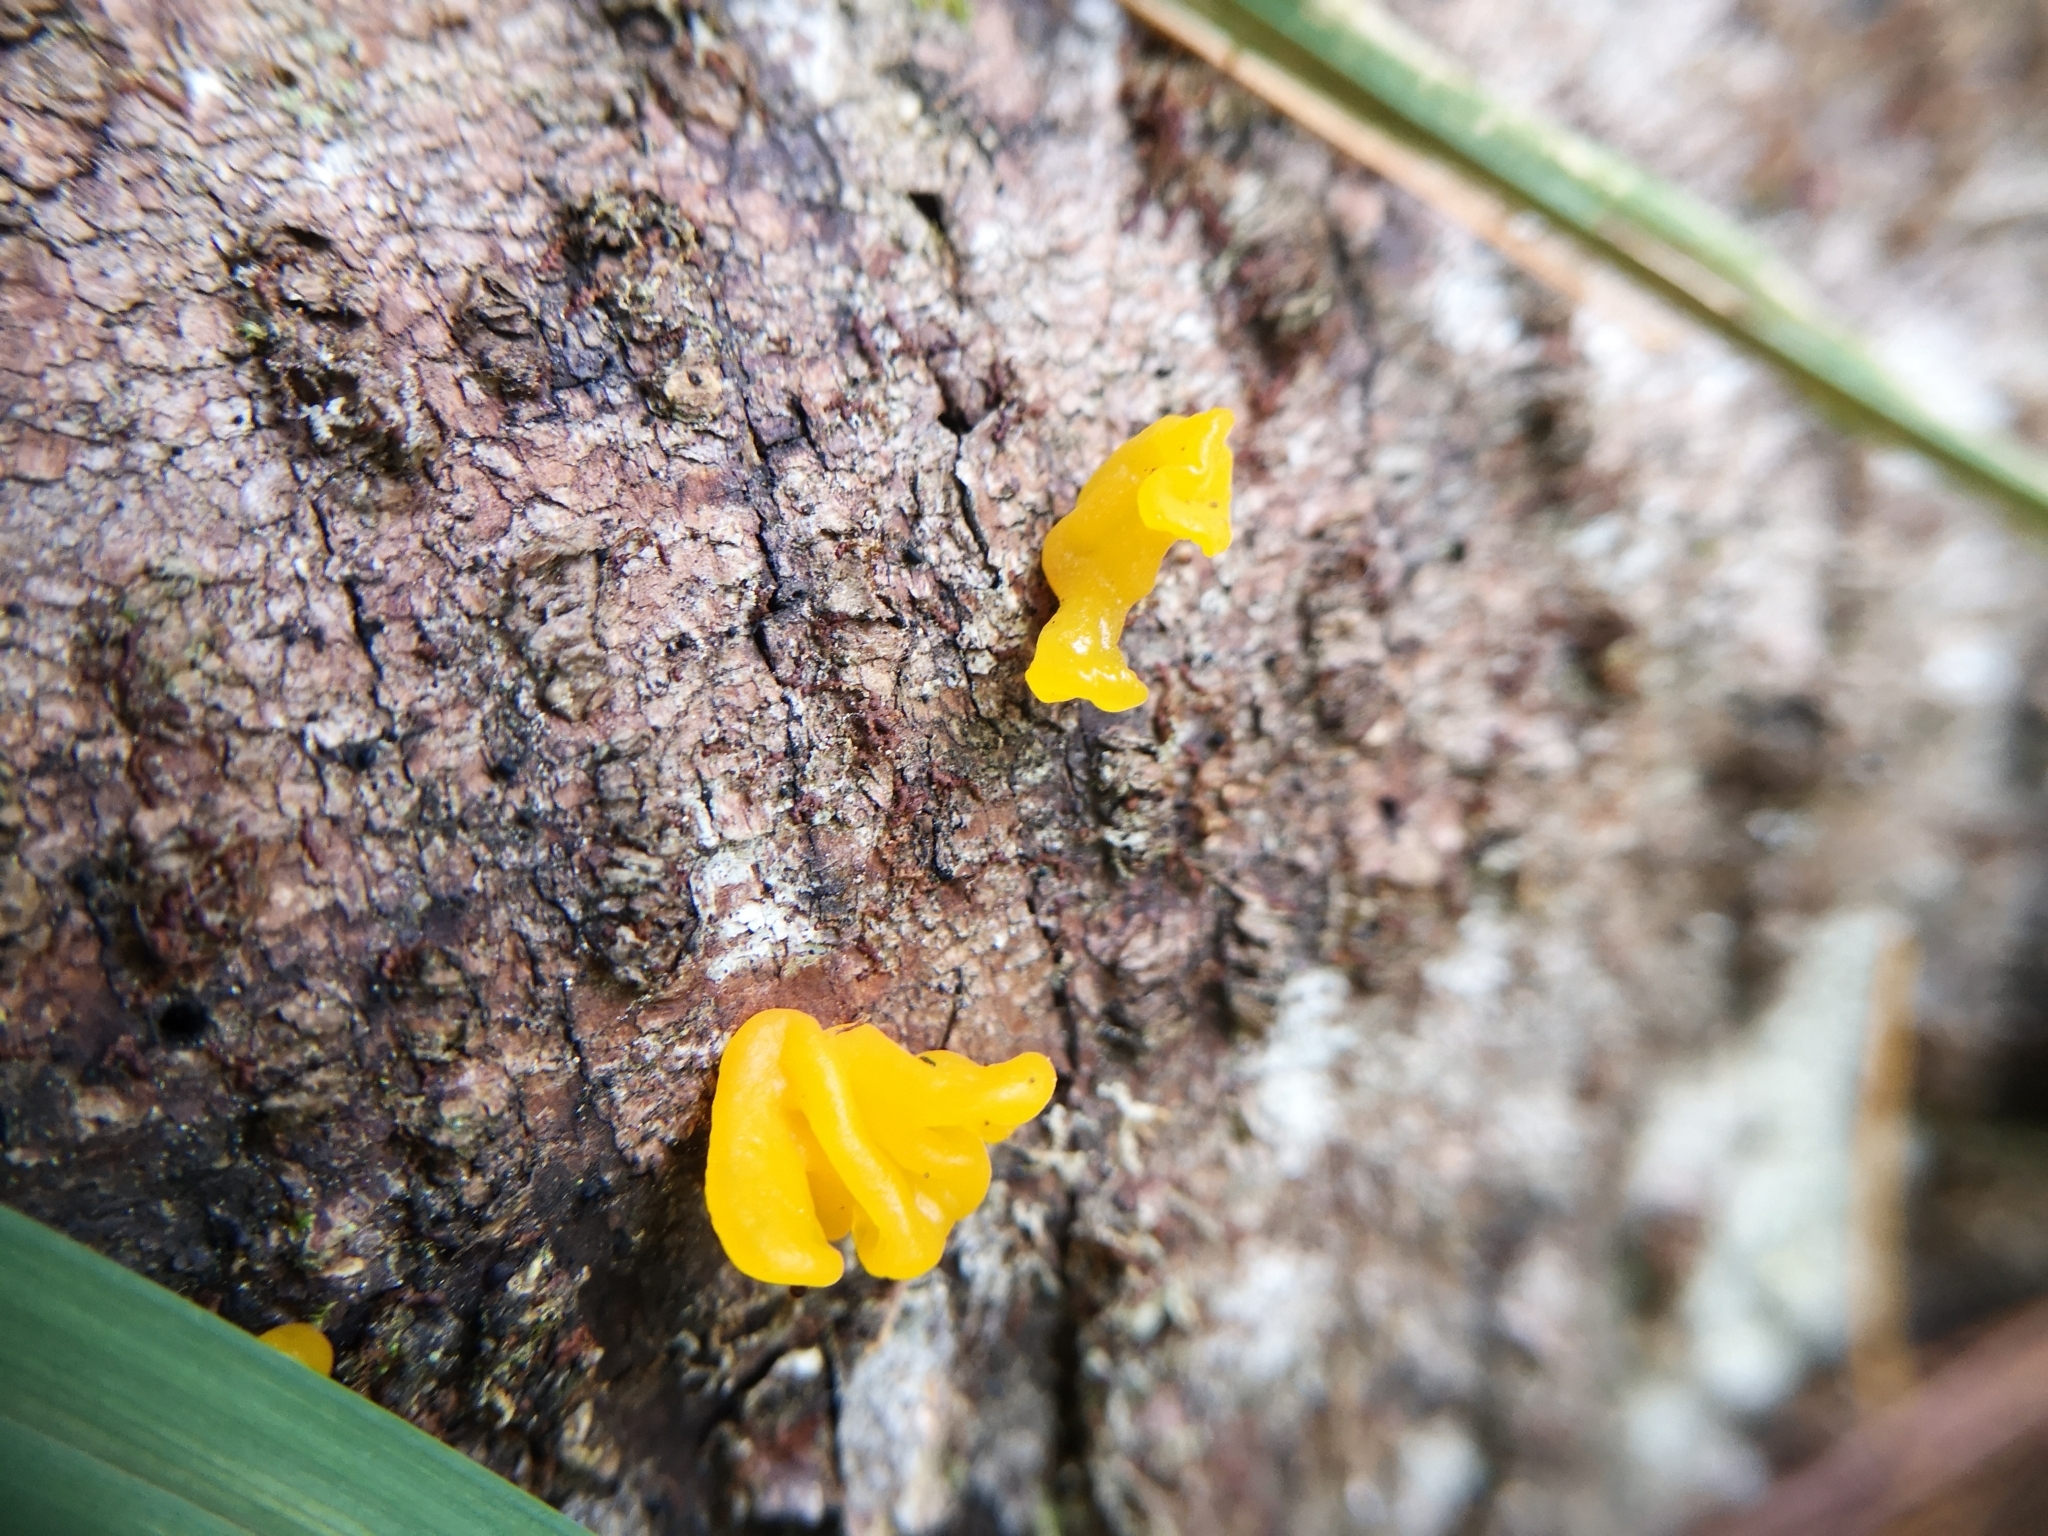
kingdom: Fungi
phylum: Basidiomycota
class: Dacrymycetes
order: Dacrymycetales
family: Dacrymycetaceae
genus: Dacrymyces
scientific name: Dacrymyces chrysospermus
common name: Orange jelly spot
